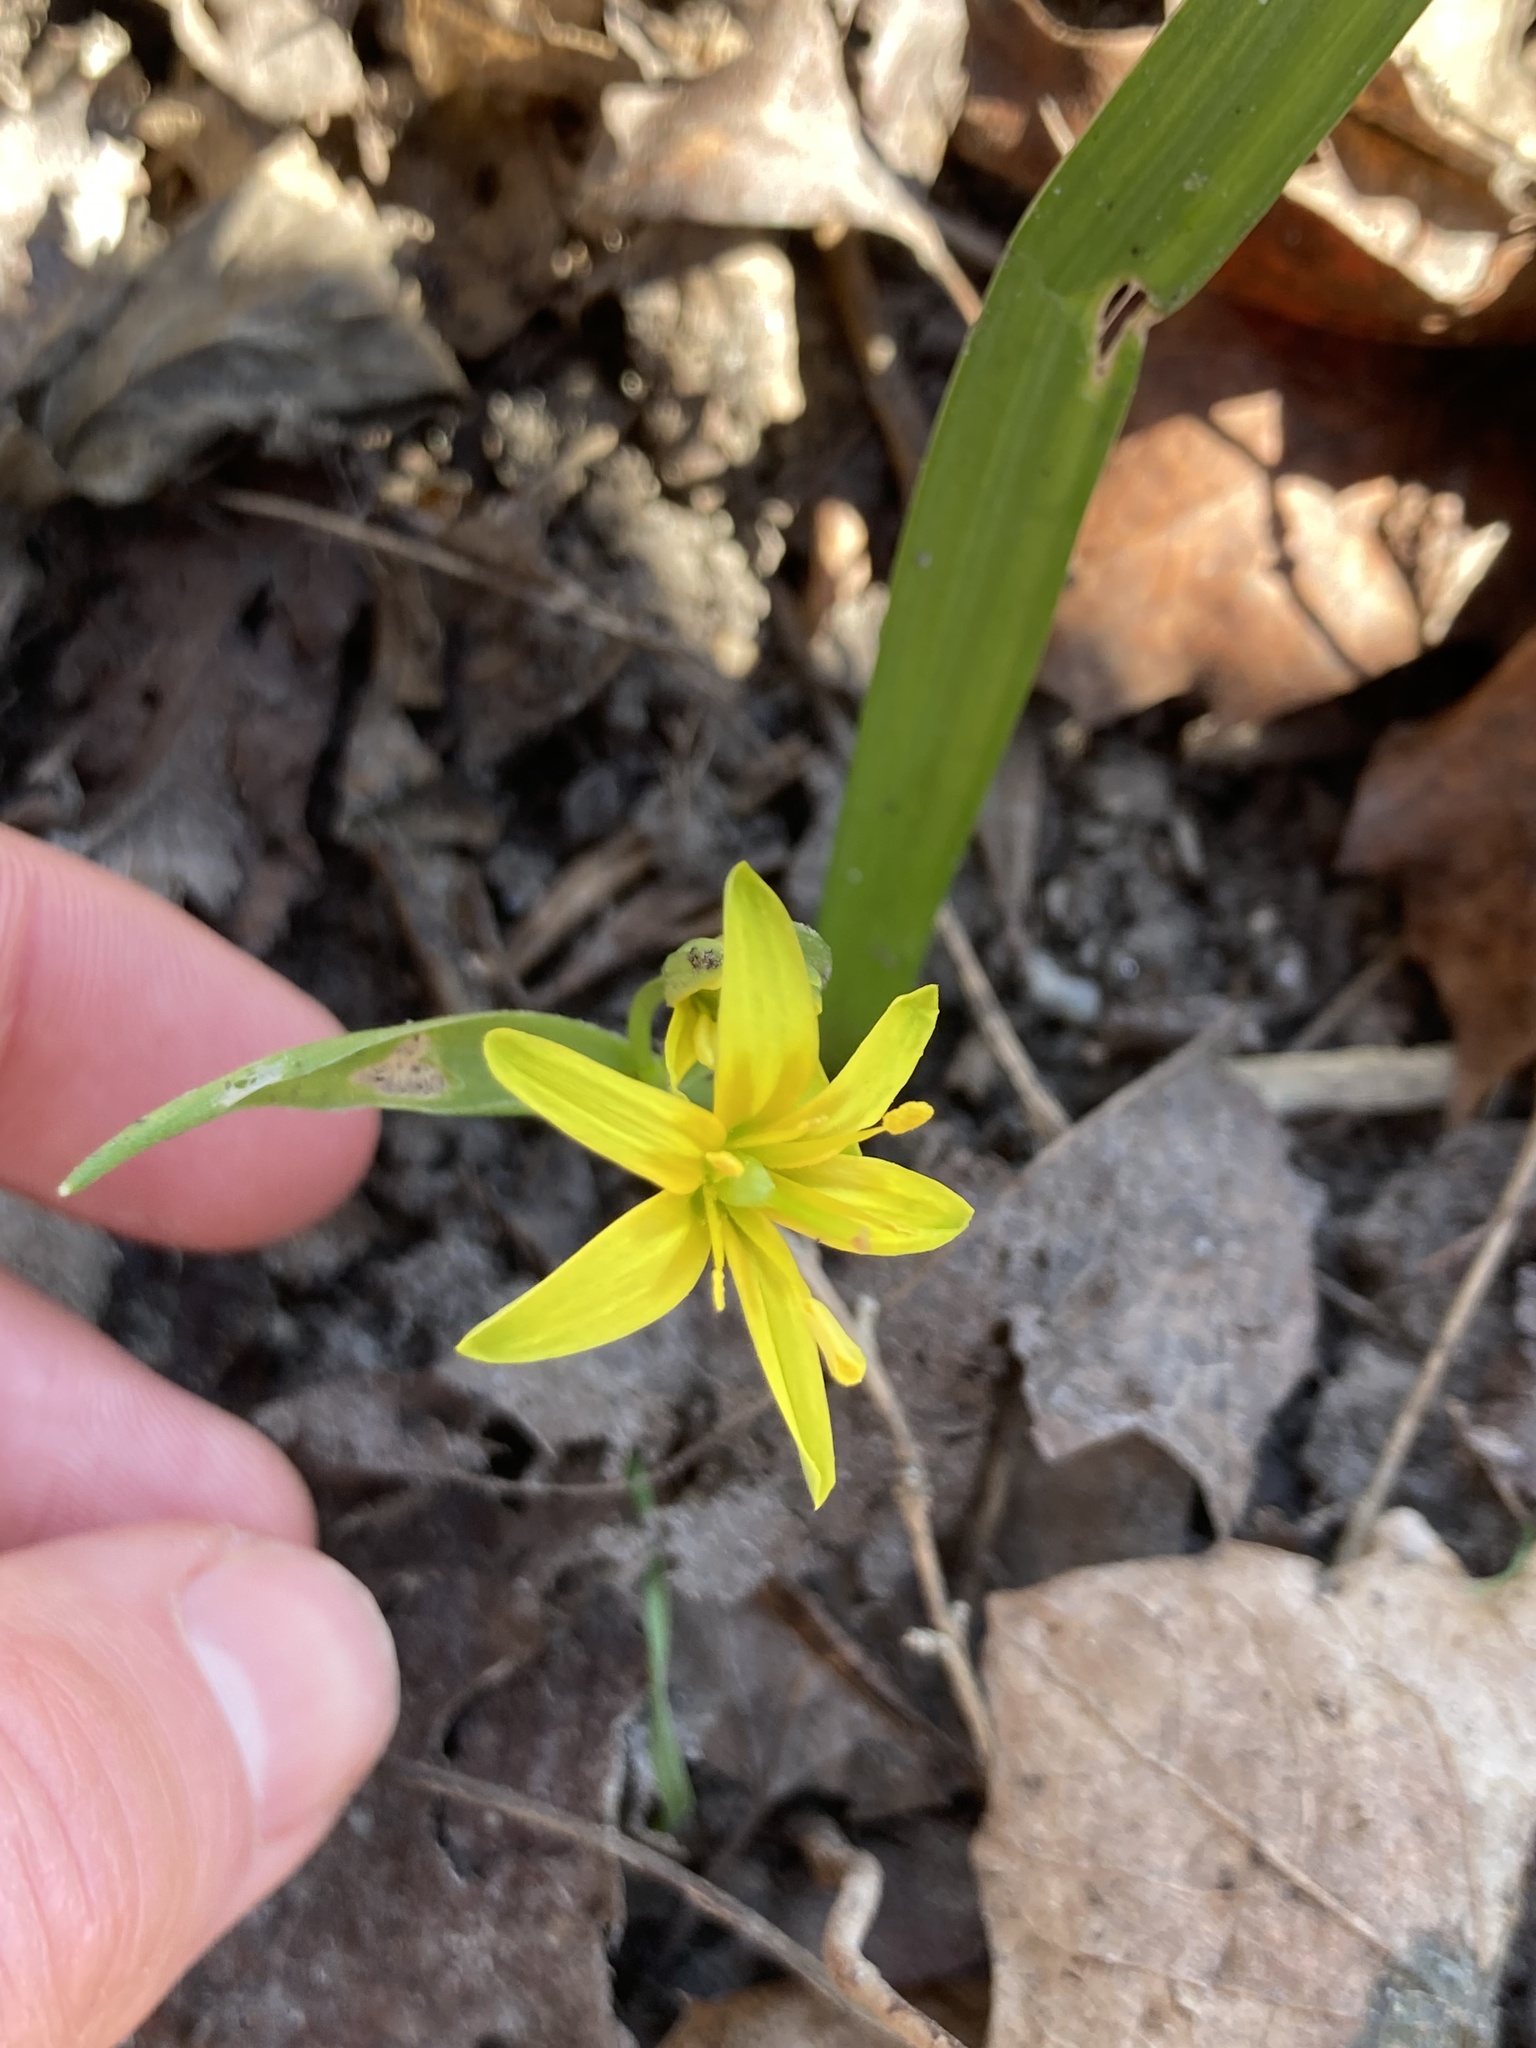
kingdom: Plantae
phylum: Tracheophyta
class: Liliopsida
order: Liliales
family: Liliaceae
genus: Gagea
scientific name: Gagea lutea
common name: Yellow star-of-bethlehem
